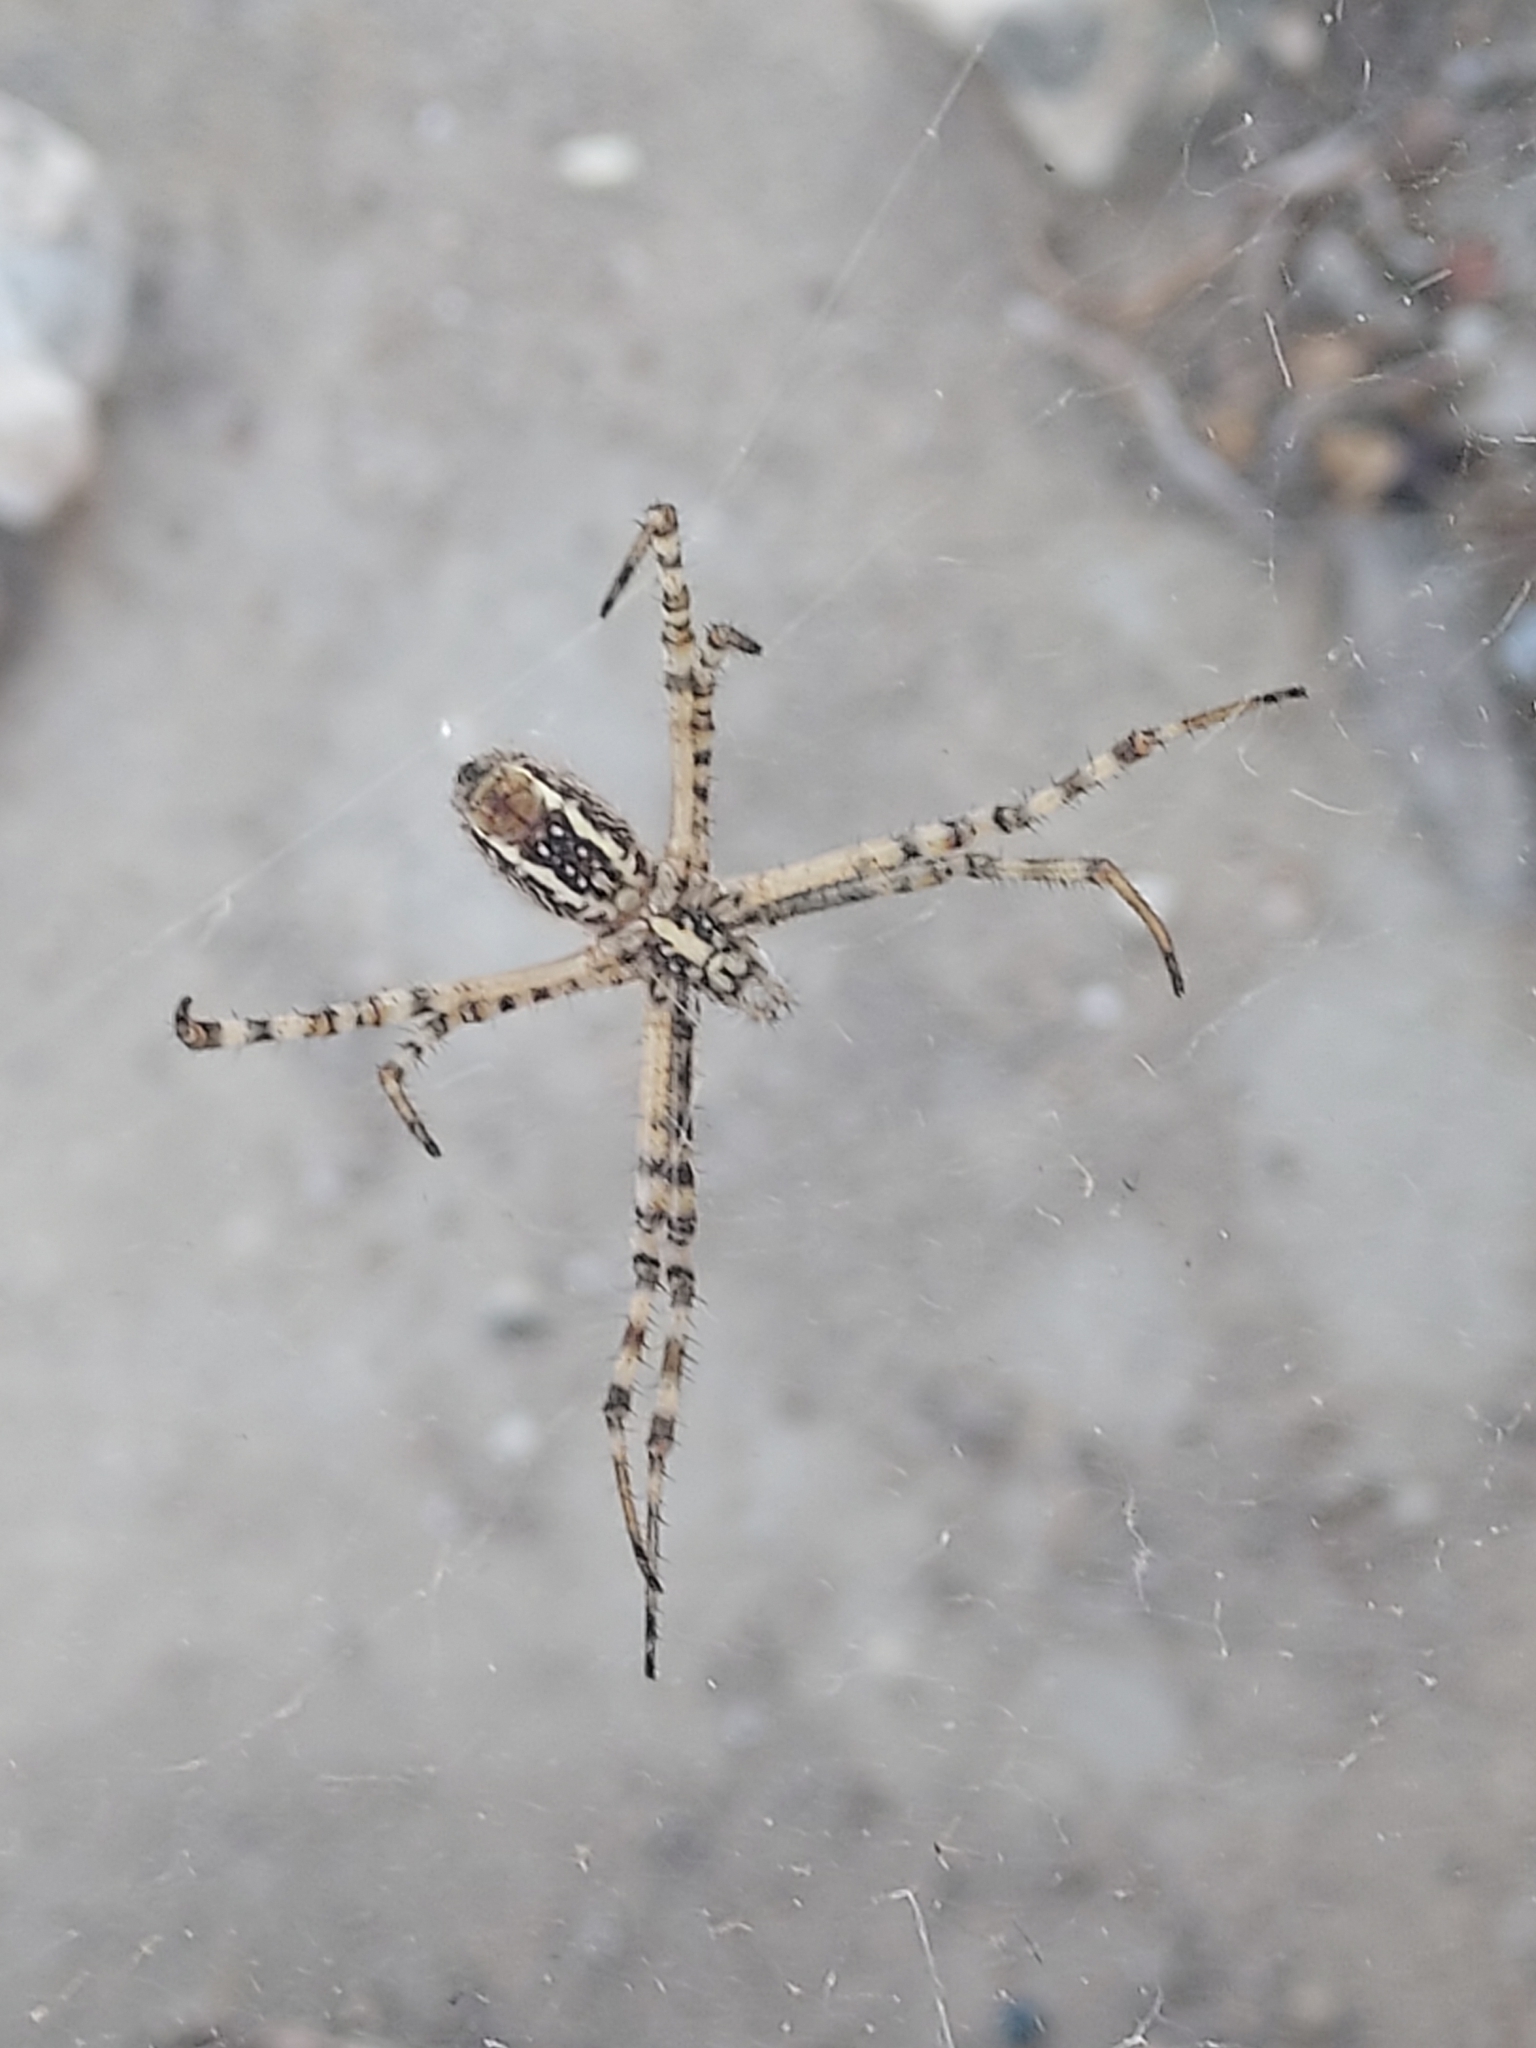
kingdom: Animalia
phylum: Arthropoda
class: Arachnida
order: Araneae
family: Araneidae
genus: Argiope
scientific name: Argiope trifasciata
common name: Banded garden spider
